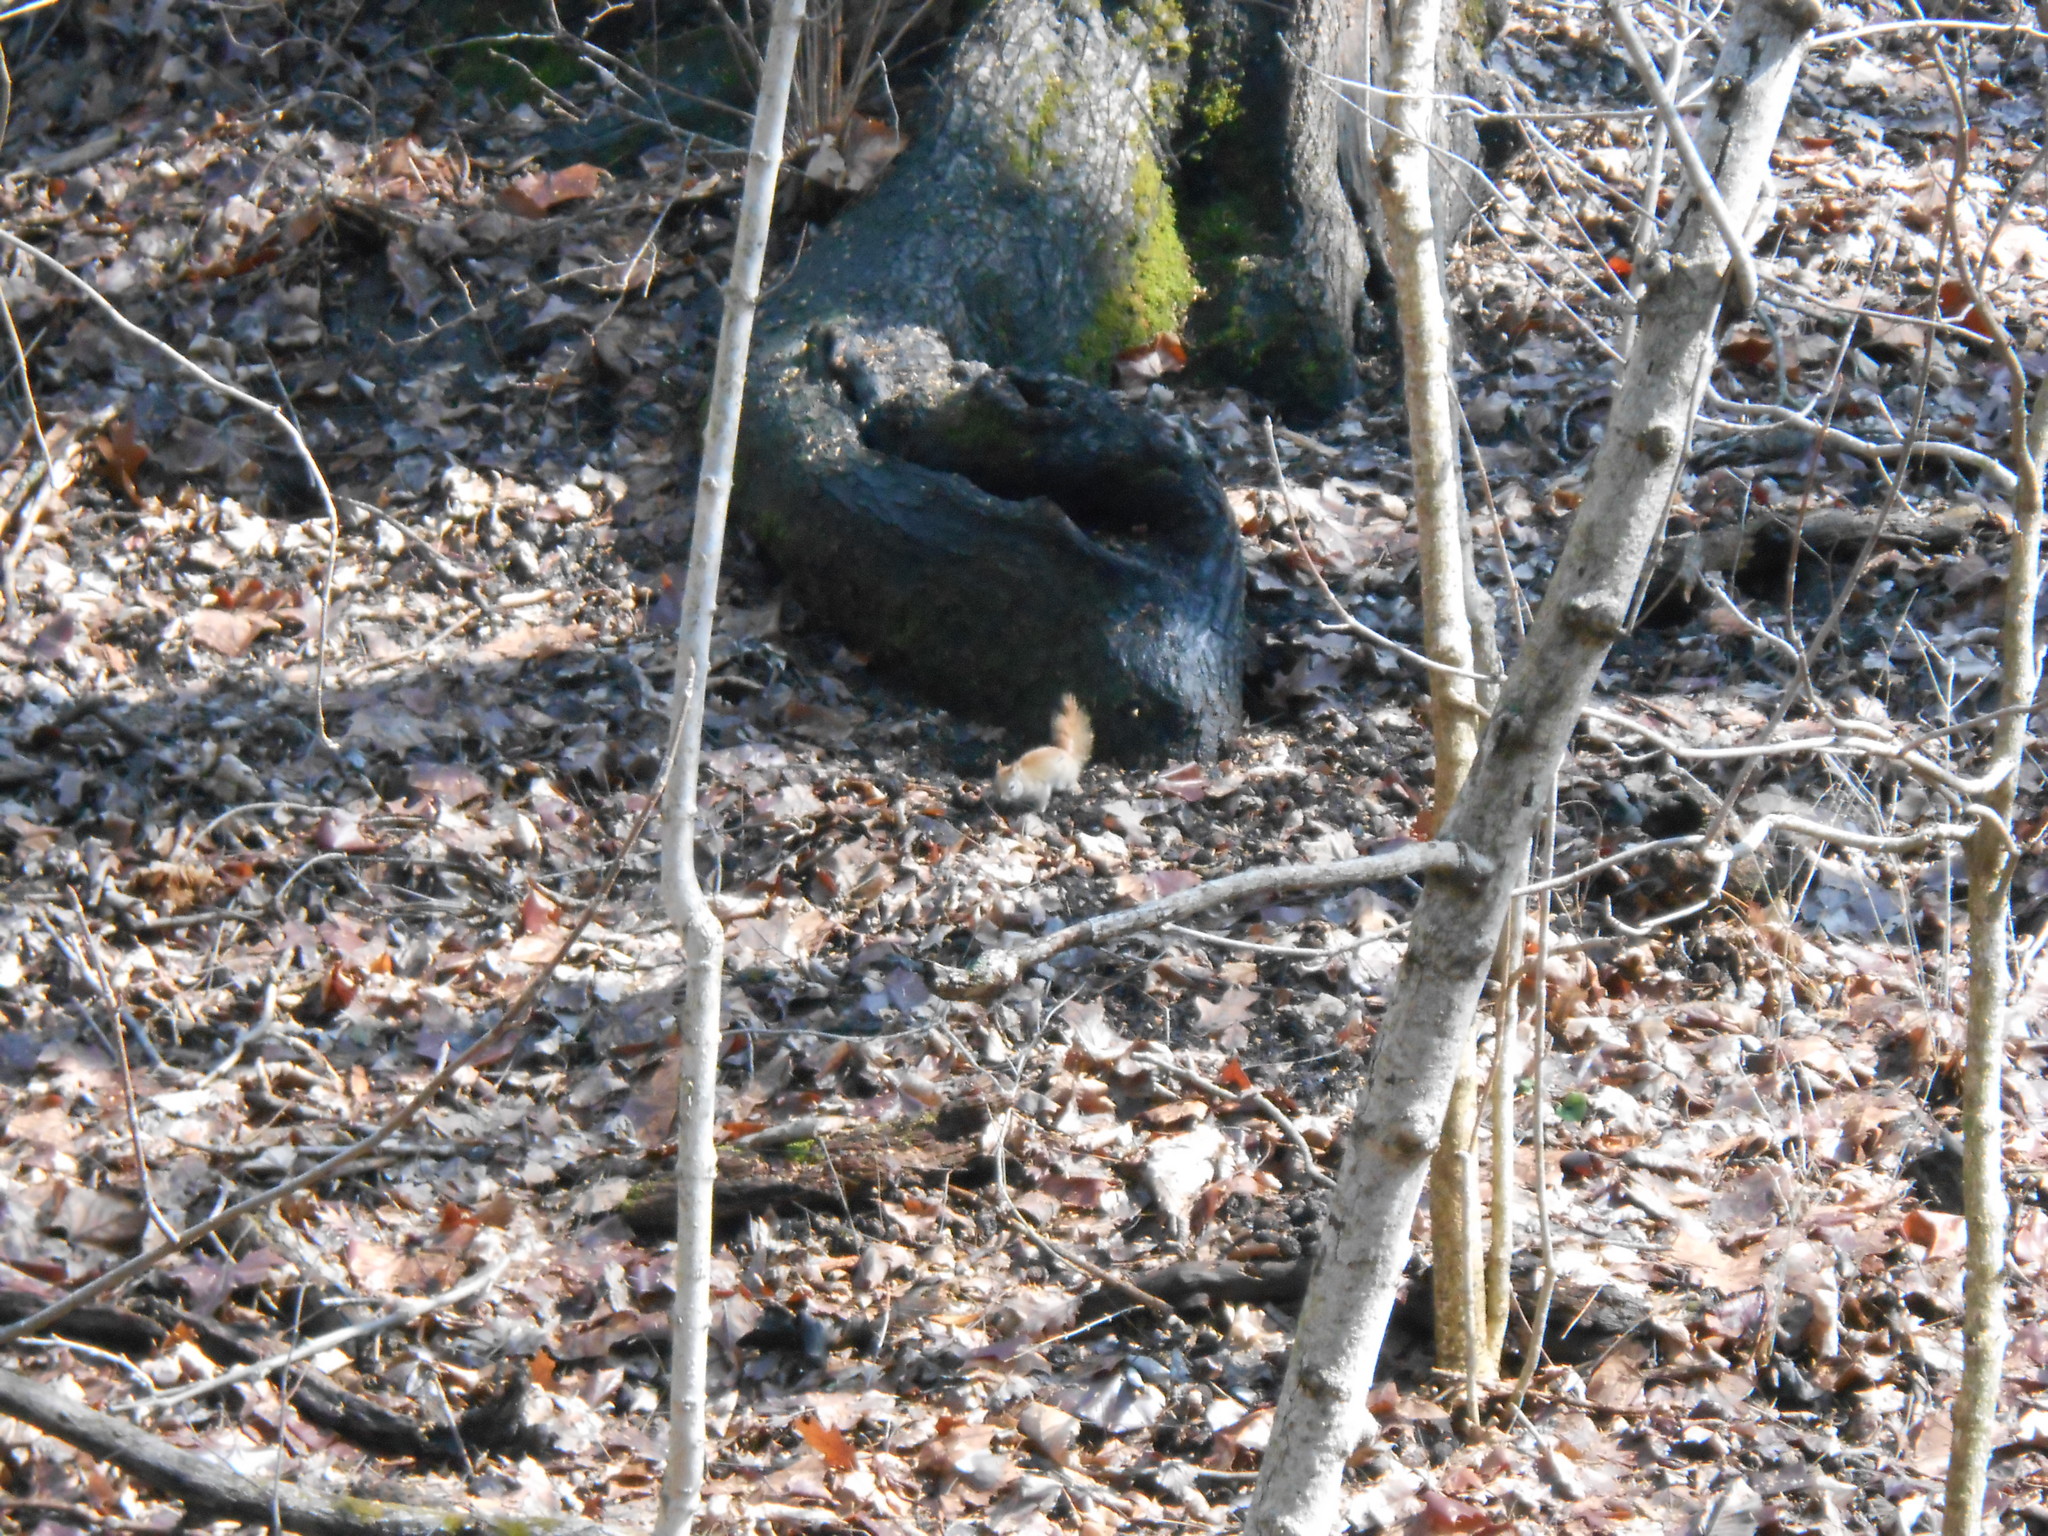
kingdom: Animalia
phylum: Chordata
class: Mammalia
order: Rodentia
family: Sciuridae
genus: Tamiasciurus
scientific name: Tamiasciurus hudsonicus
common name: Red squirrel
